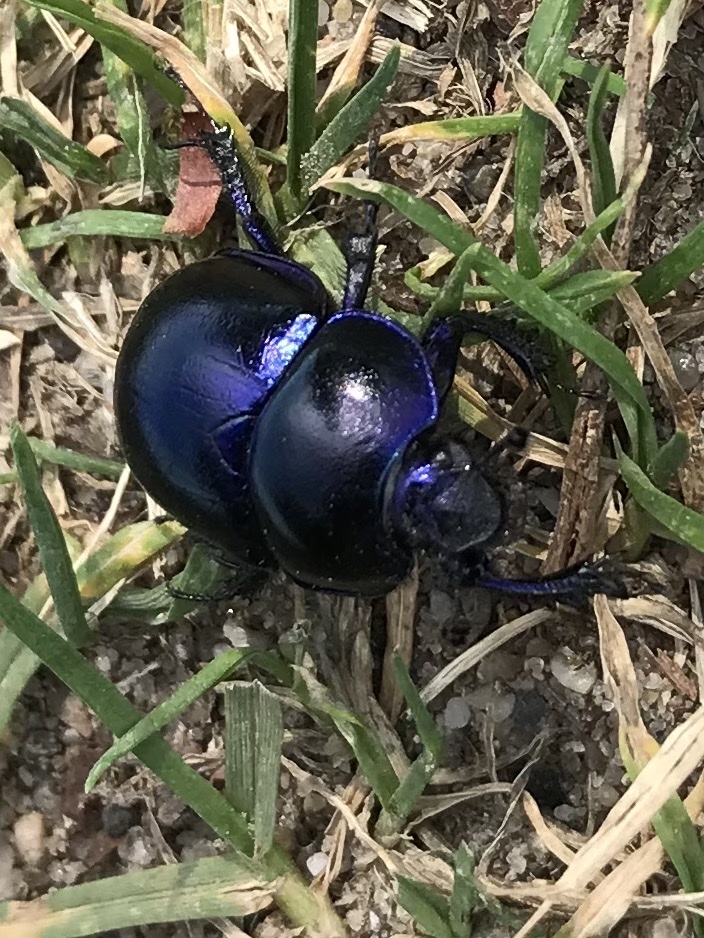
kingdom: Animalia
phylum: Arthropoda
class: Insecta
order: Coleoptera
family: Geotrupidae
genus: Trypocopris
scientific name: Trypocopris vernalis
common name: Spring dumbledor
